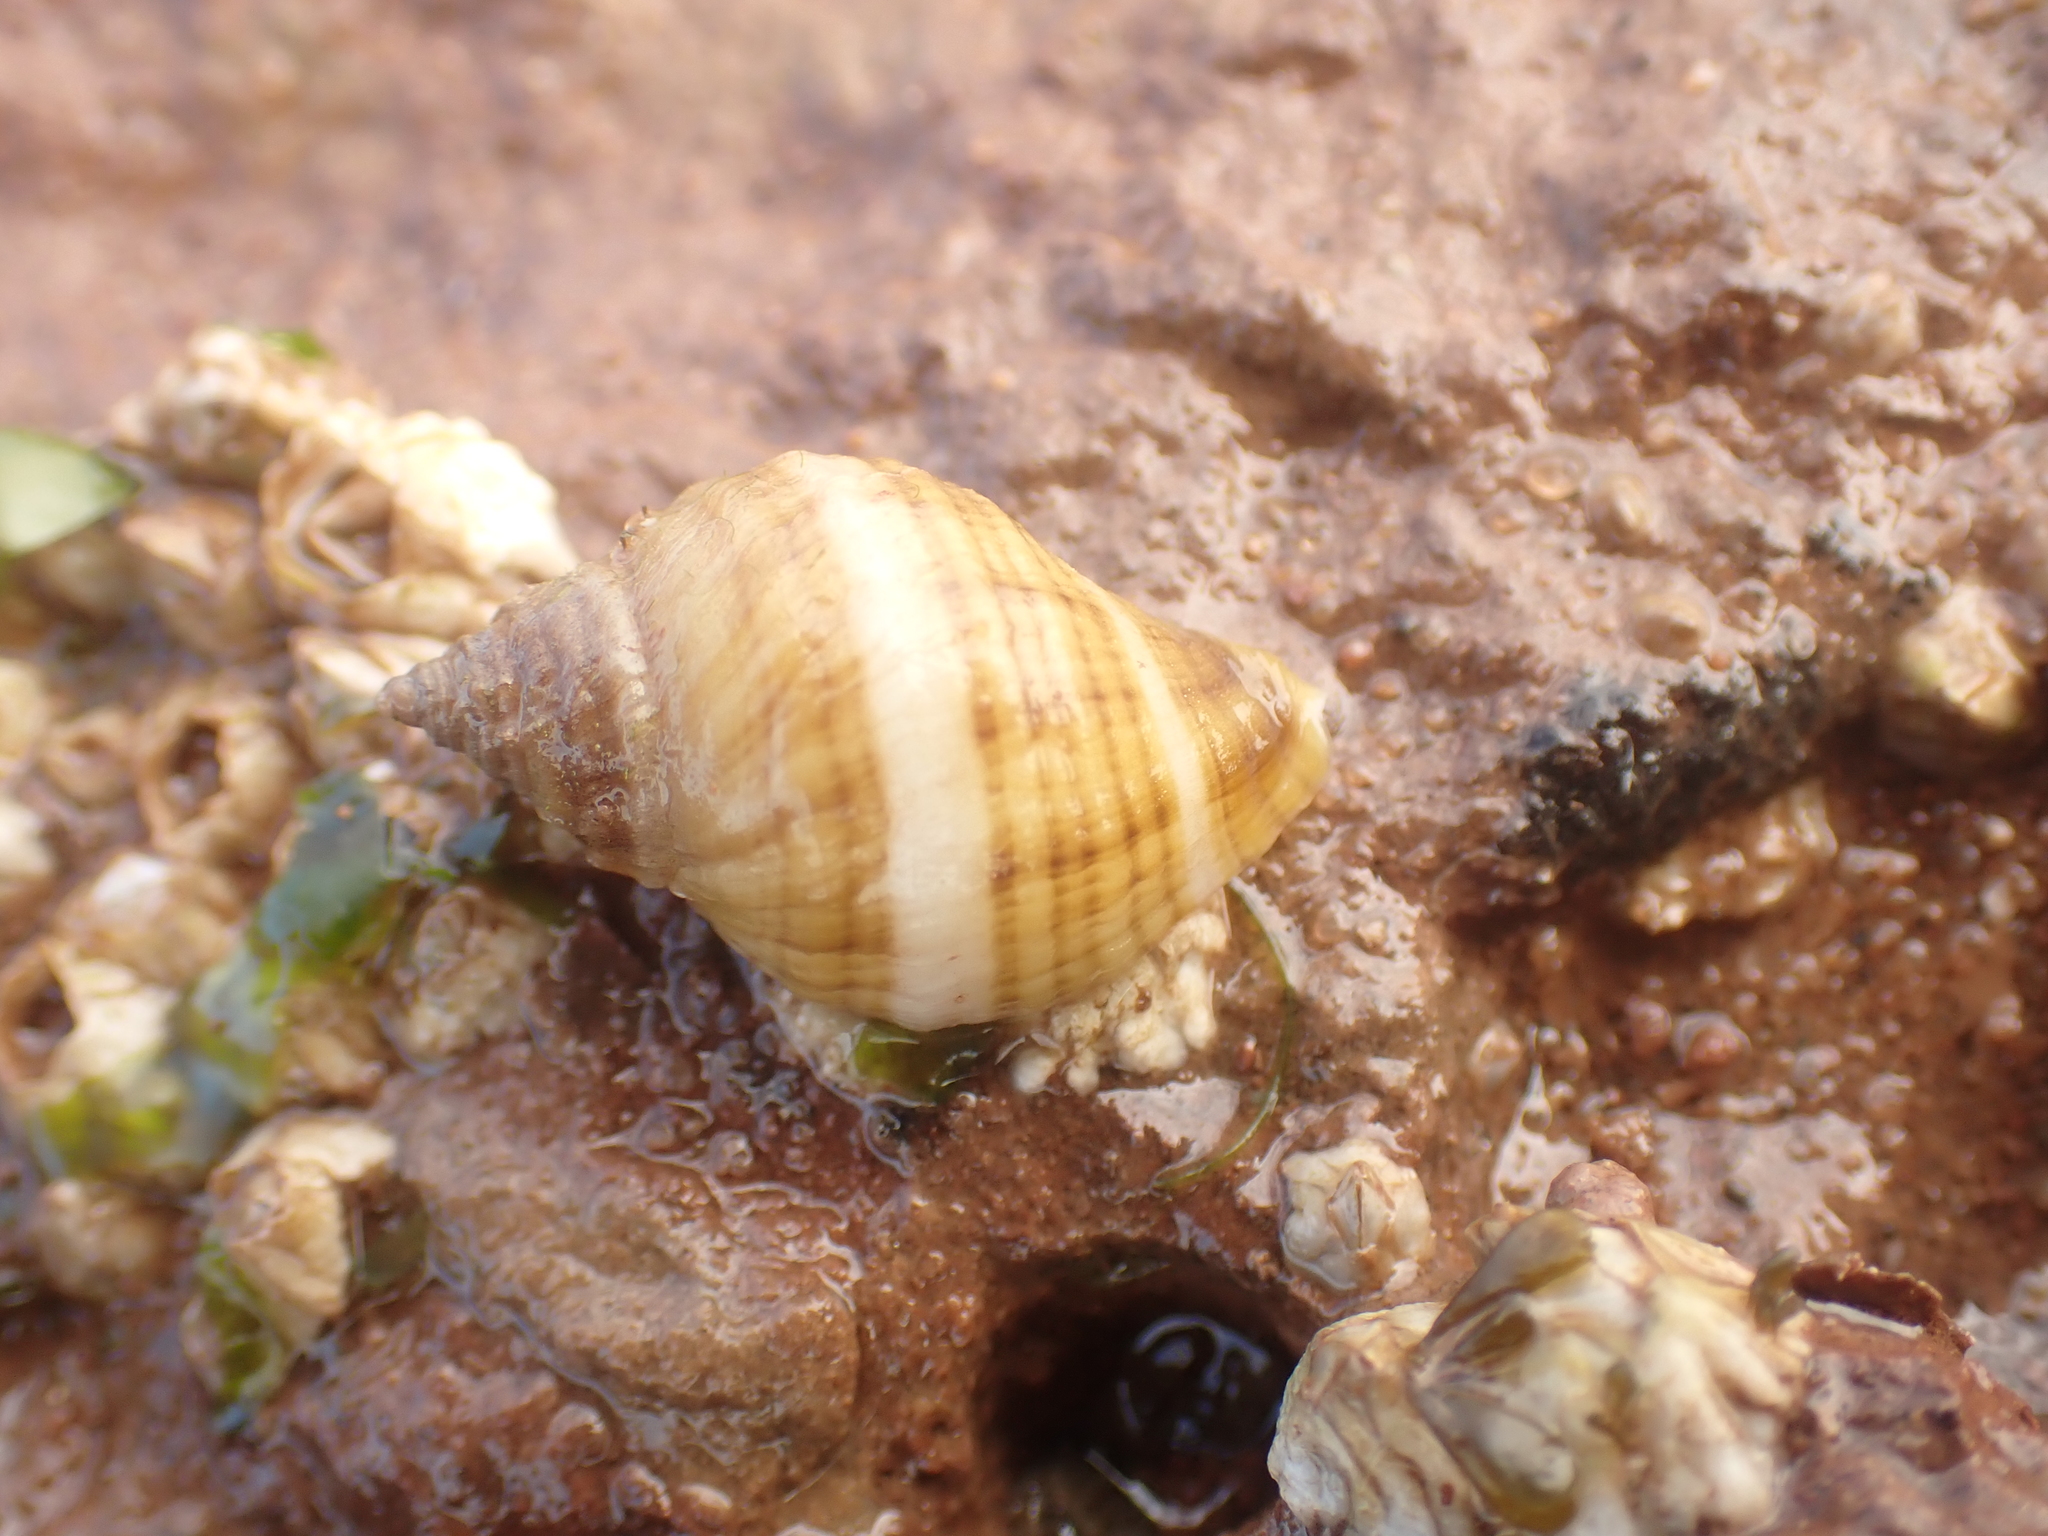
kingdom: Animalia
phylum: Mollusca
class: Gastropoda
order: Neogastropoda
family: Muricidae
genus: Nucella
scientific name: Nucella lapillus
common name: Dog whelk
